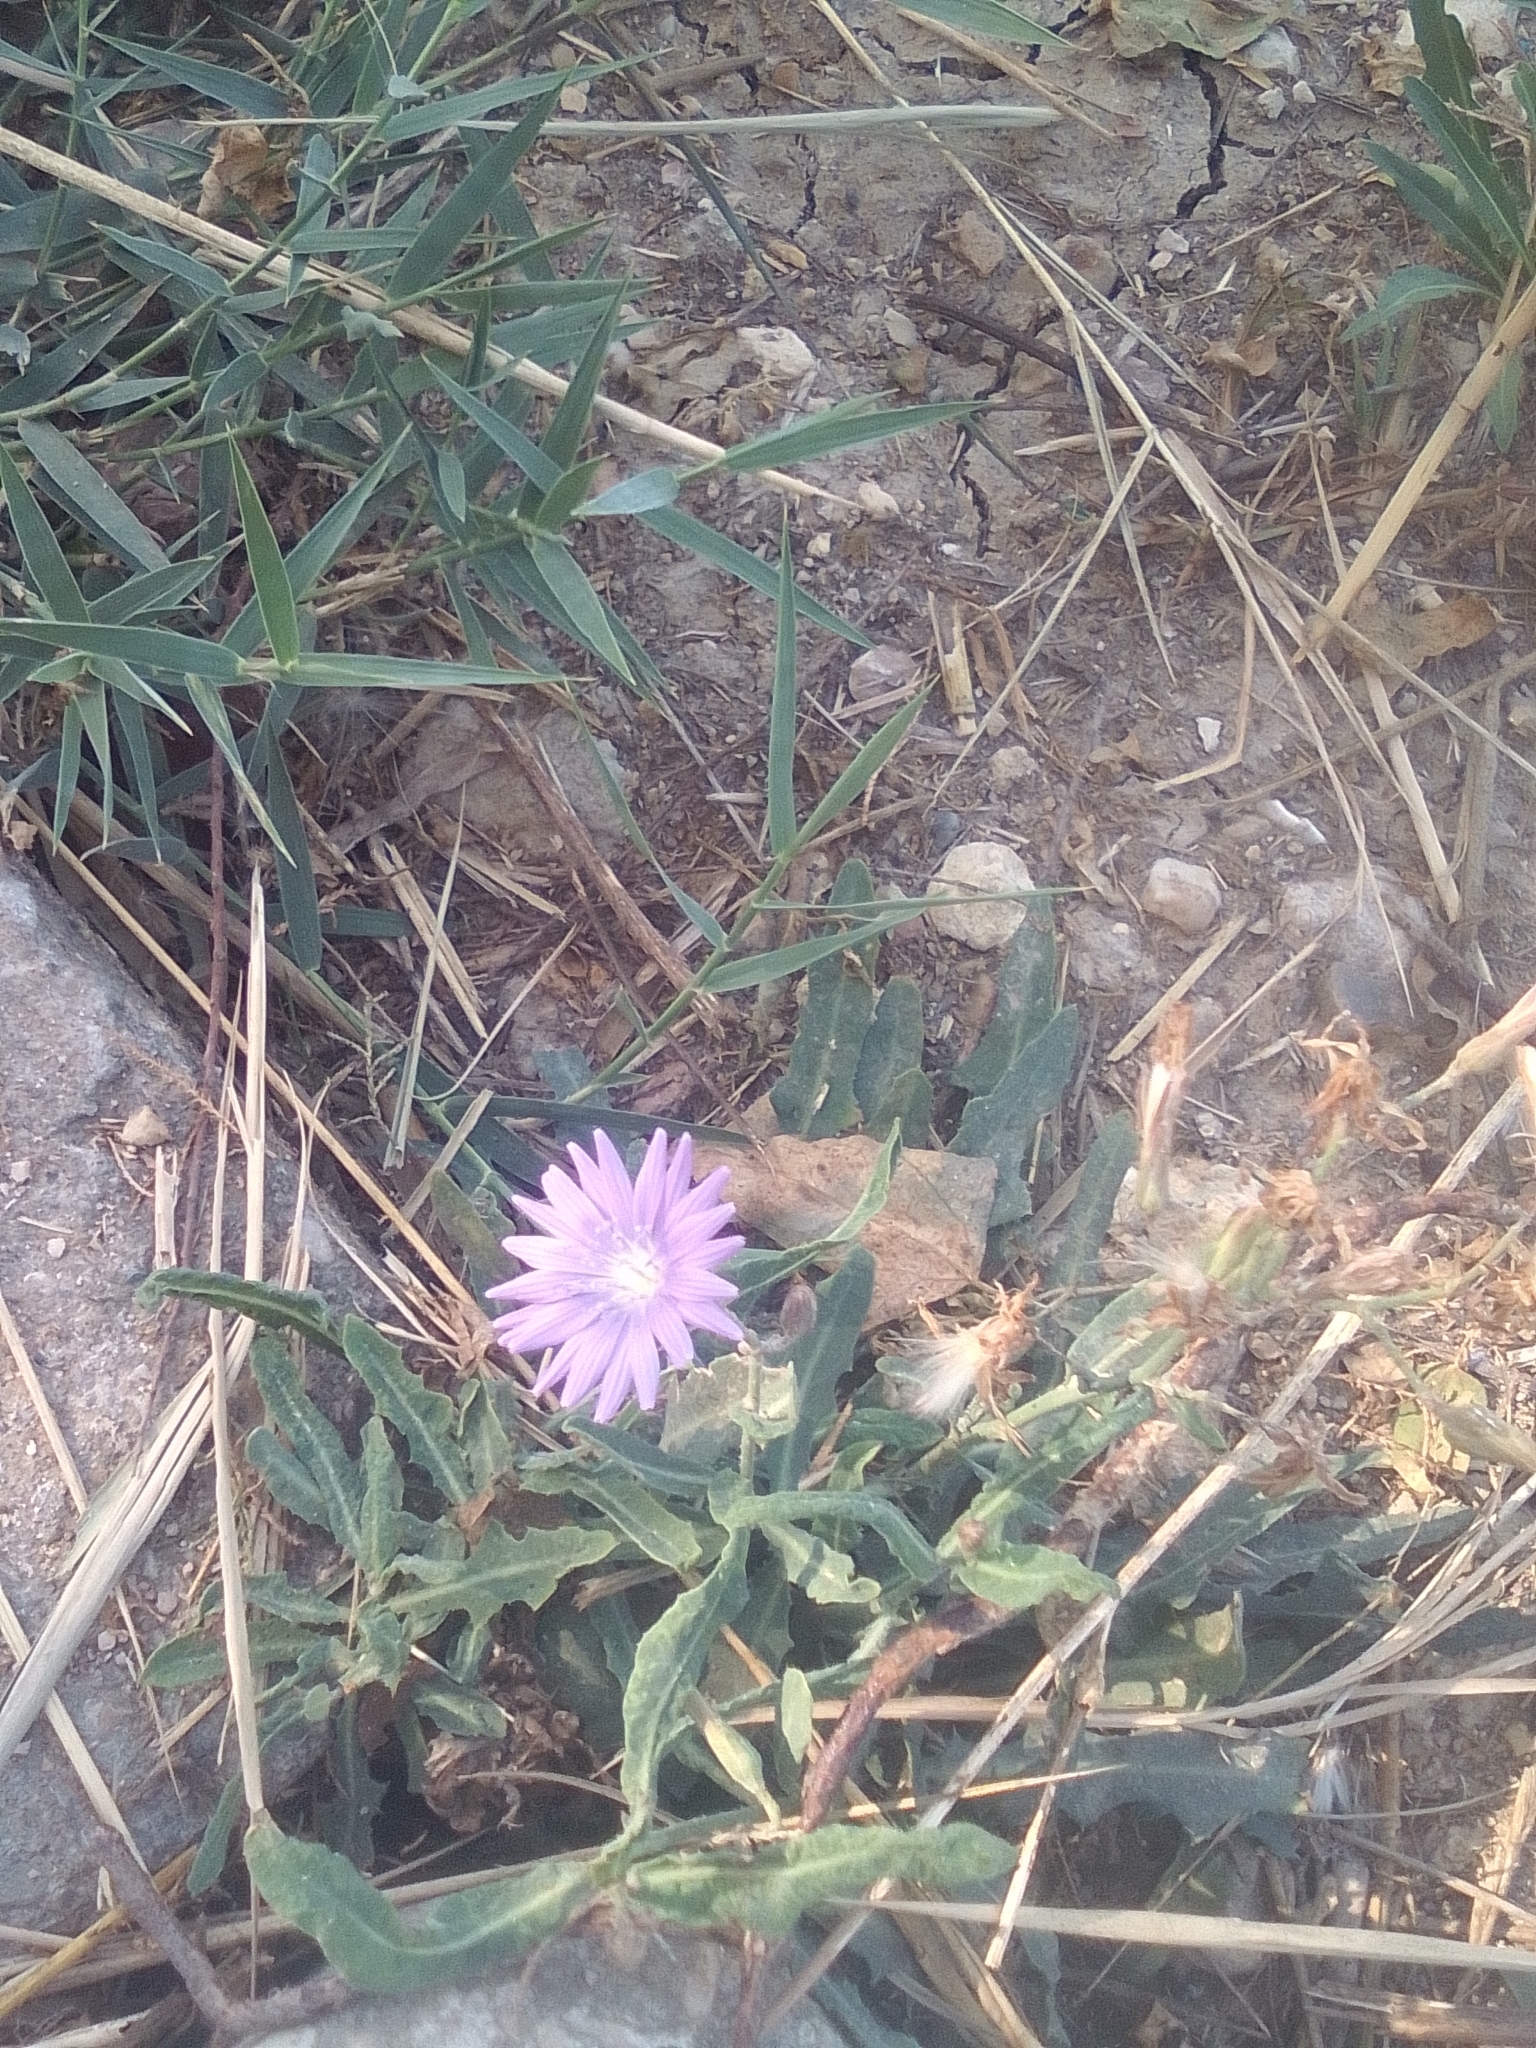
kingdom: Plantae
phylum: Tracheophyta
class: Magnoliopsida
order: Asterales
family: Asteraceae
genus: Lactuca
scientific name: Lactuca tatarica
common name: Blue lettuce
